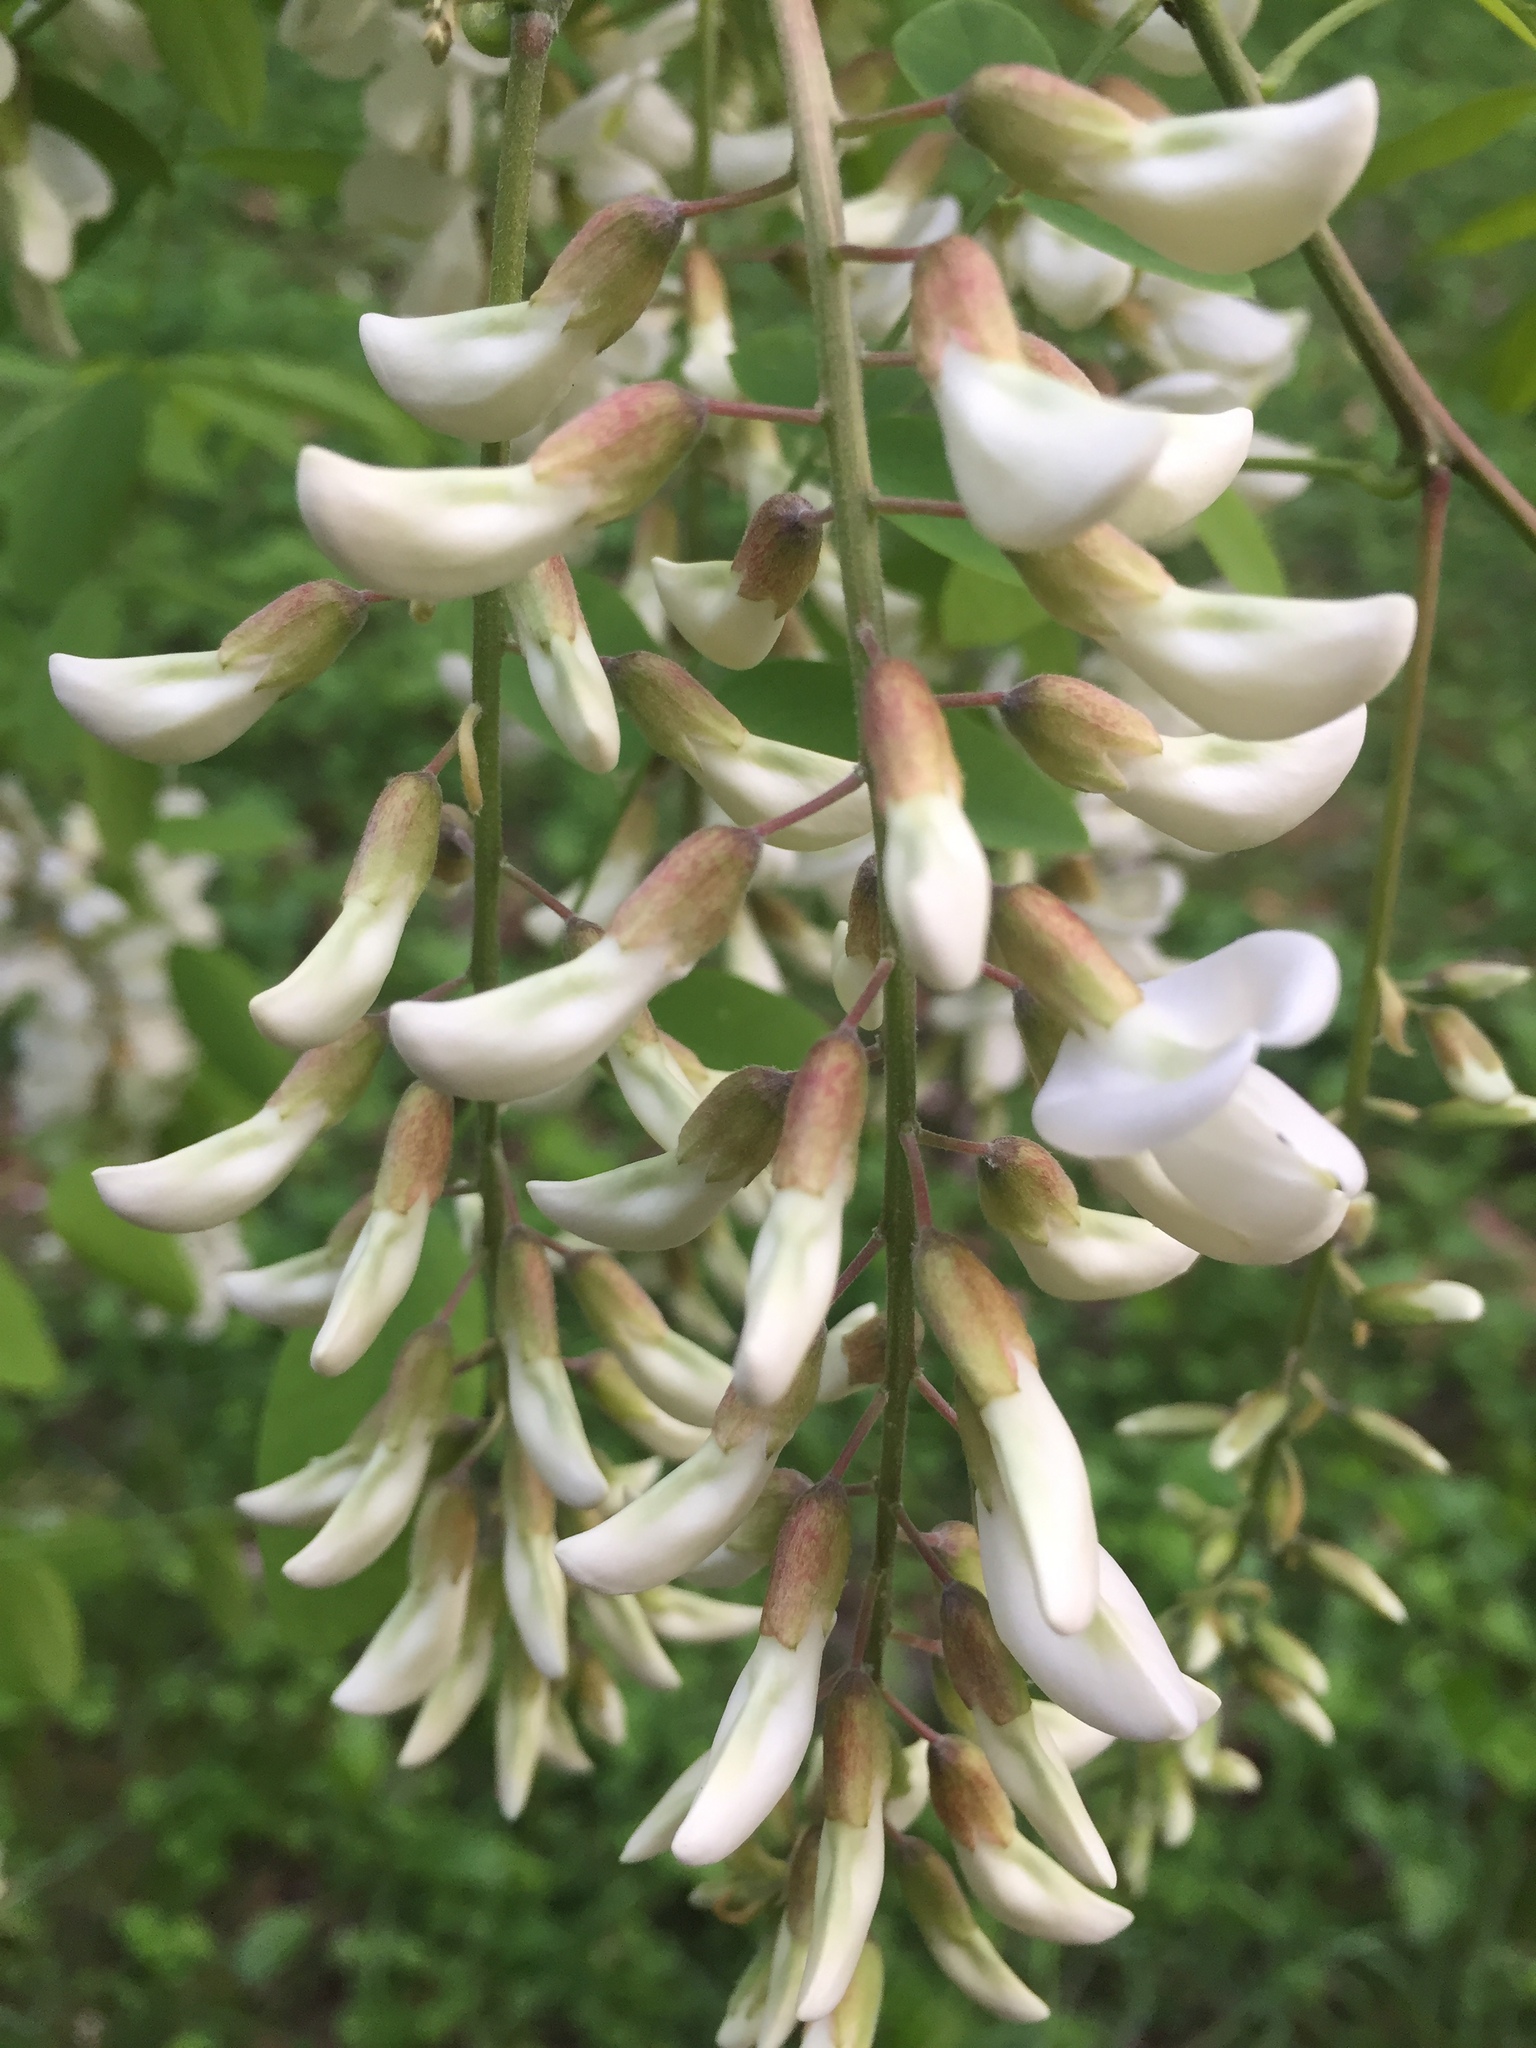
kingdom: Plantae
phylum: Tracheophyta
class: Magnoliopsida
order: Fabales
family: Fabaceae
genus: Robinia
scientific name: Robinia pseudoacacia
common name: Black locust
